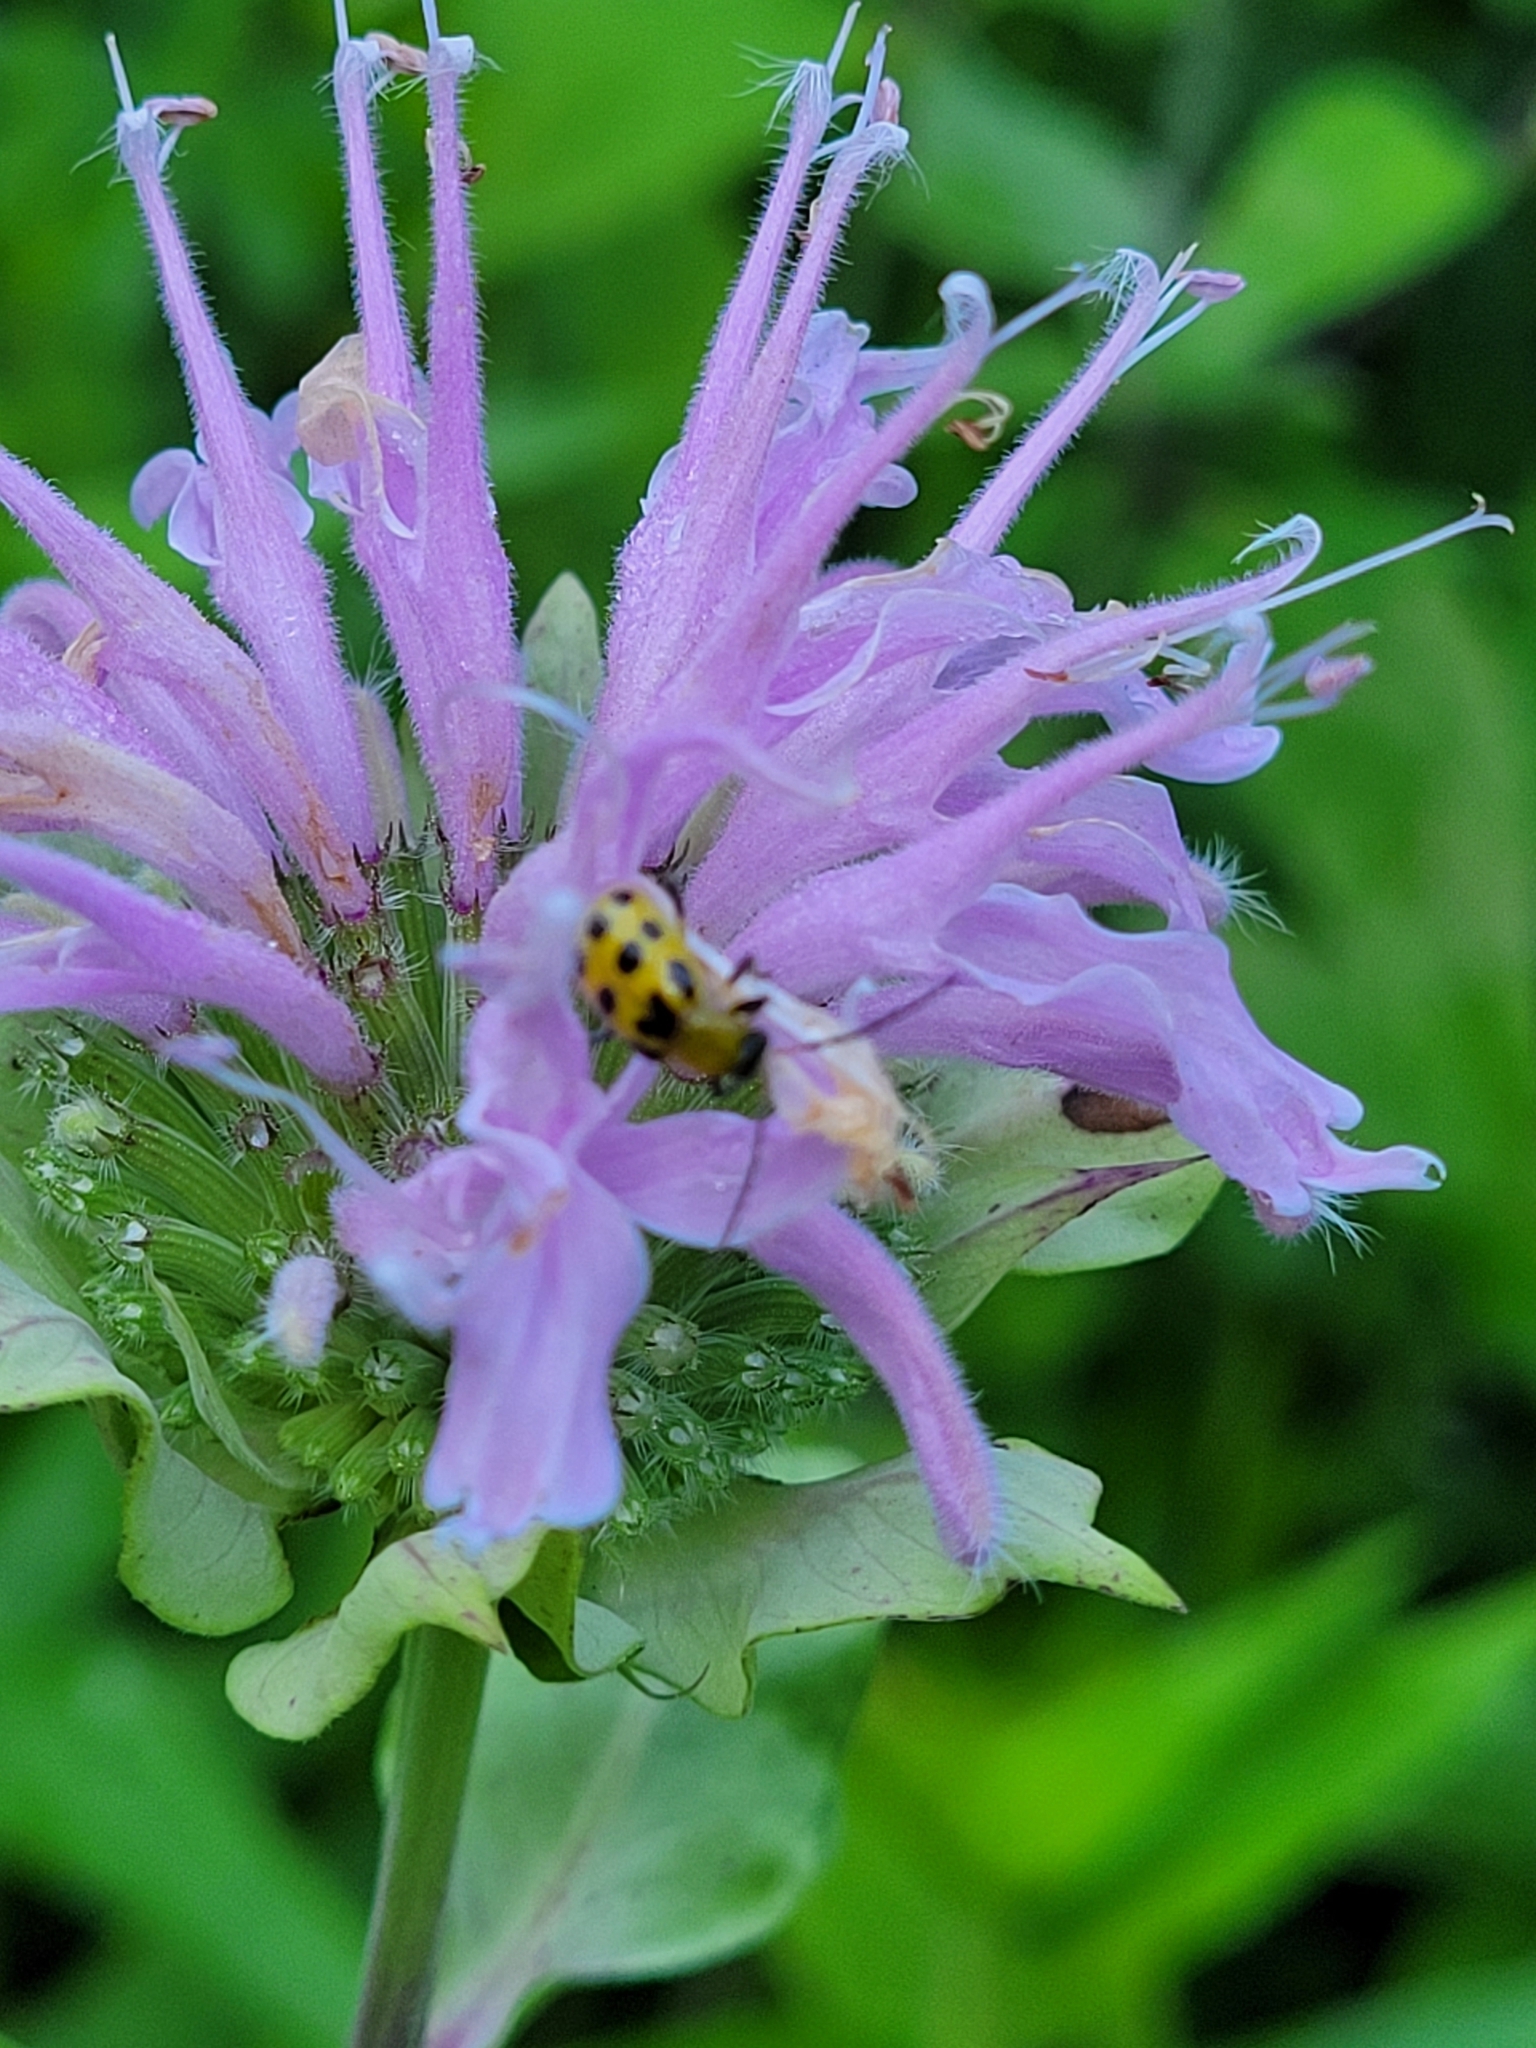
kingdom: Animalia
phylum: Arthropoda
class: Insecta
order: Coleoptera
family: Chrysomelidae
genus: Diabrotica
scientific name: Diabrotica undecimpunctata
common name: Spotted cucumber beetle
